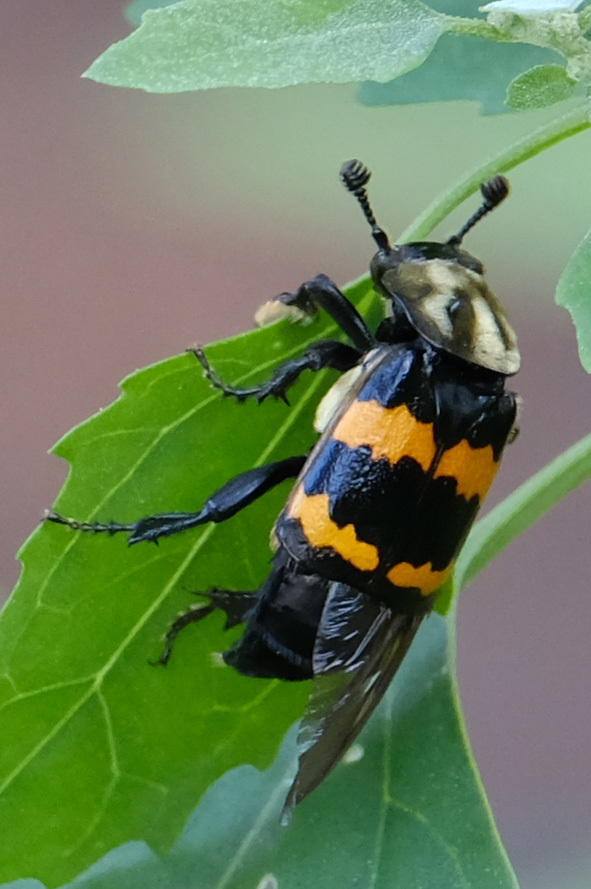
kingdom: Animalia
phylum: Arthropoda
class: Insecta
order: Coleoptera
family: Staphylinidae
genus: Nicrophorus
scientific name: Nicrophorus tomentosus
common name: Tomentose burying beetle
